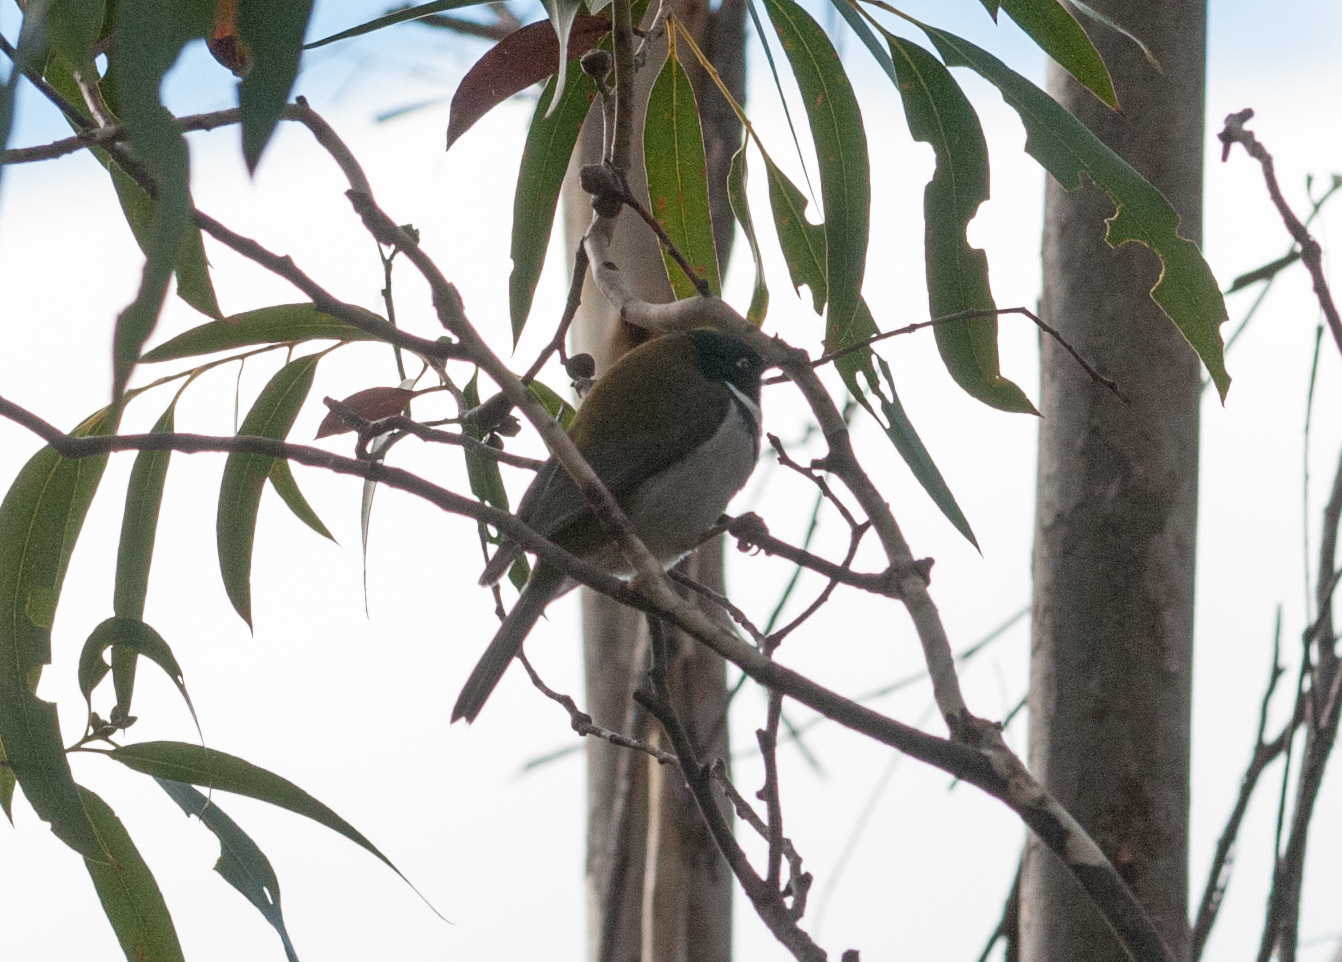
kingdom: Animalia
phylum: Chordata
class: Aves
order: Passeriformes
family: Meliphagidae
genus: Melithreptus
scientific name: Melithreptus affinis
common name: Black-headed honeyeater
